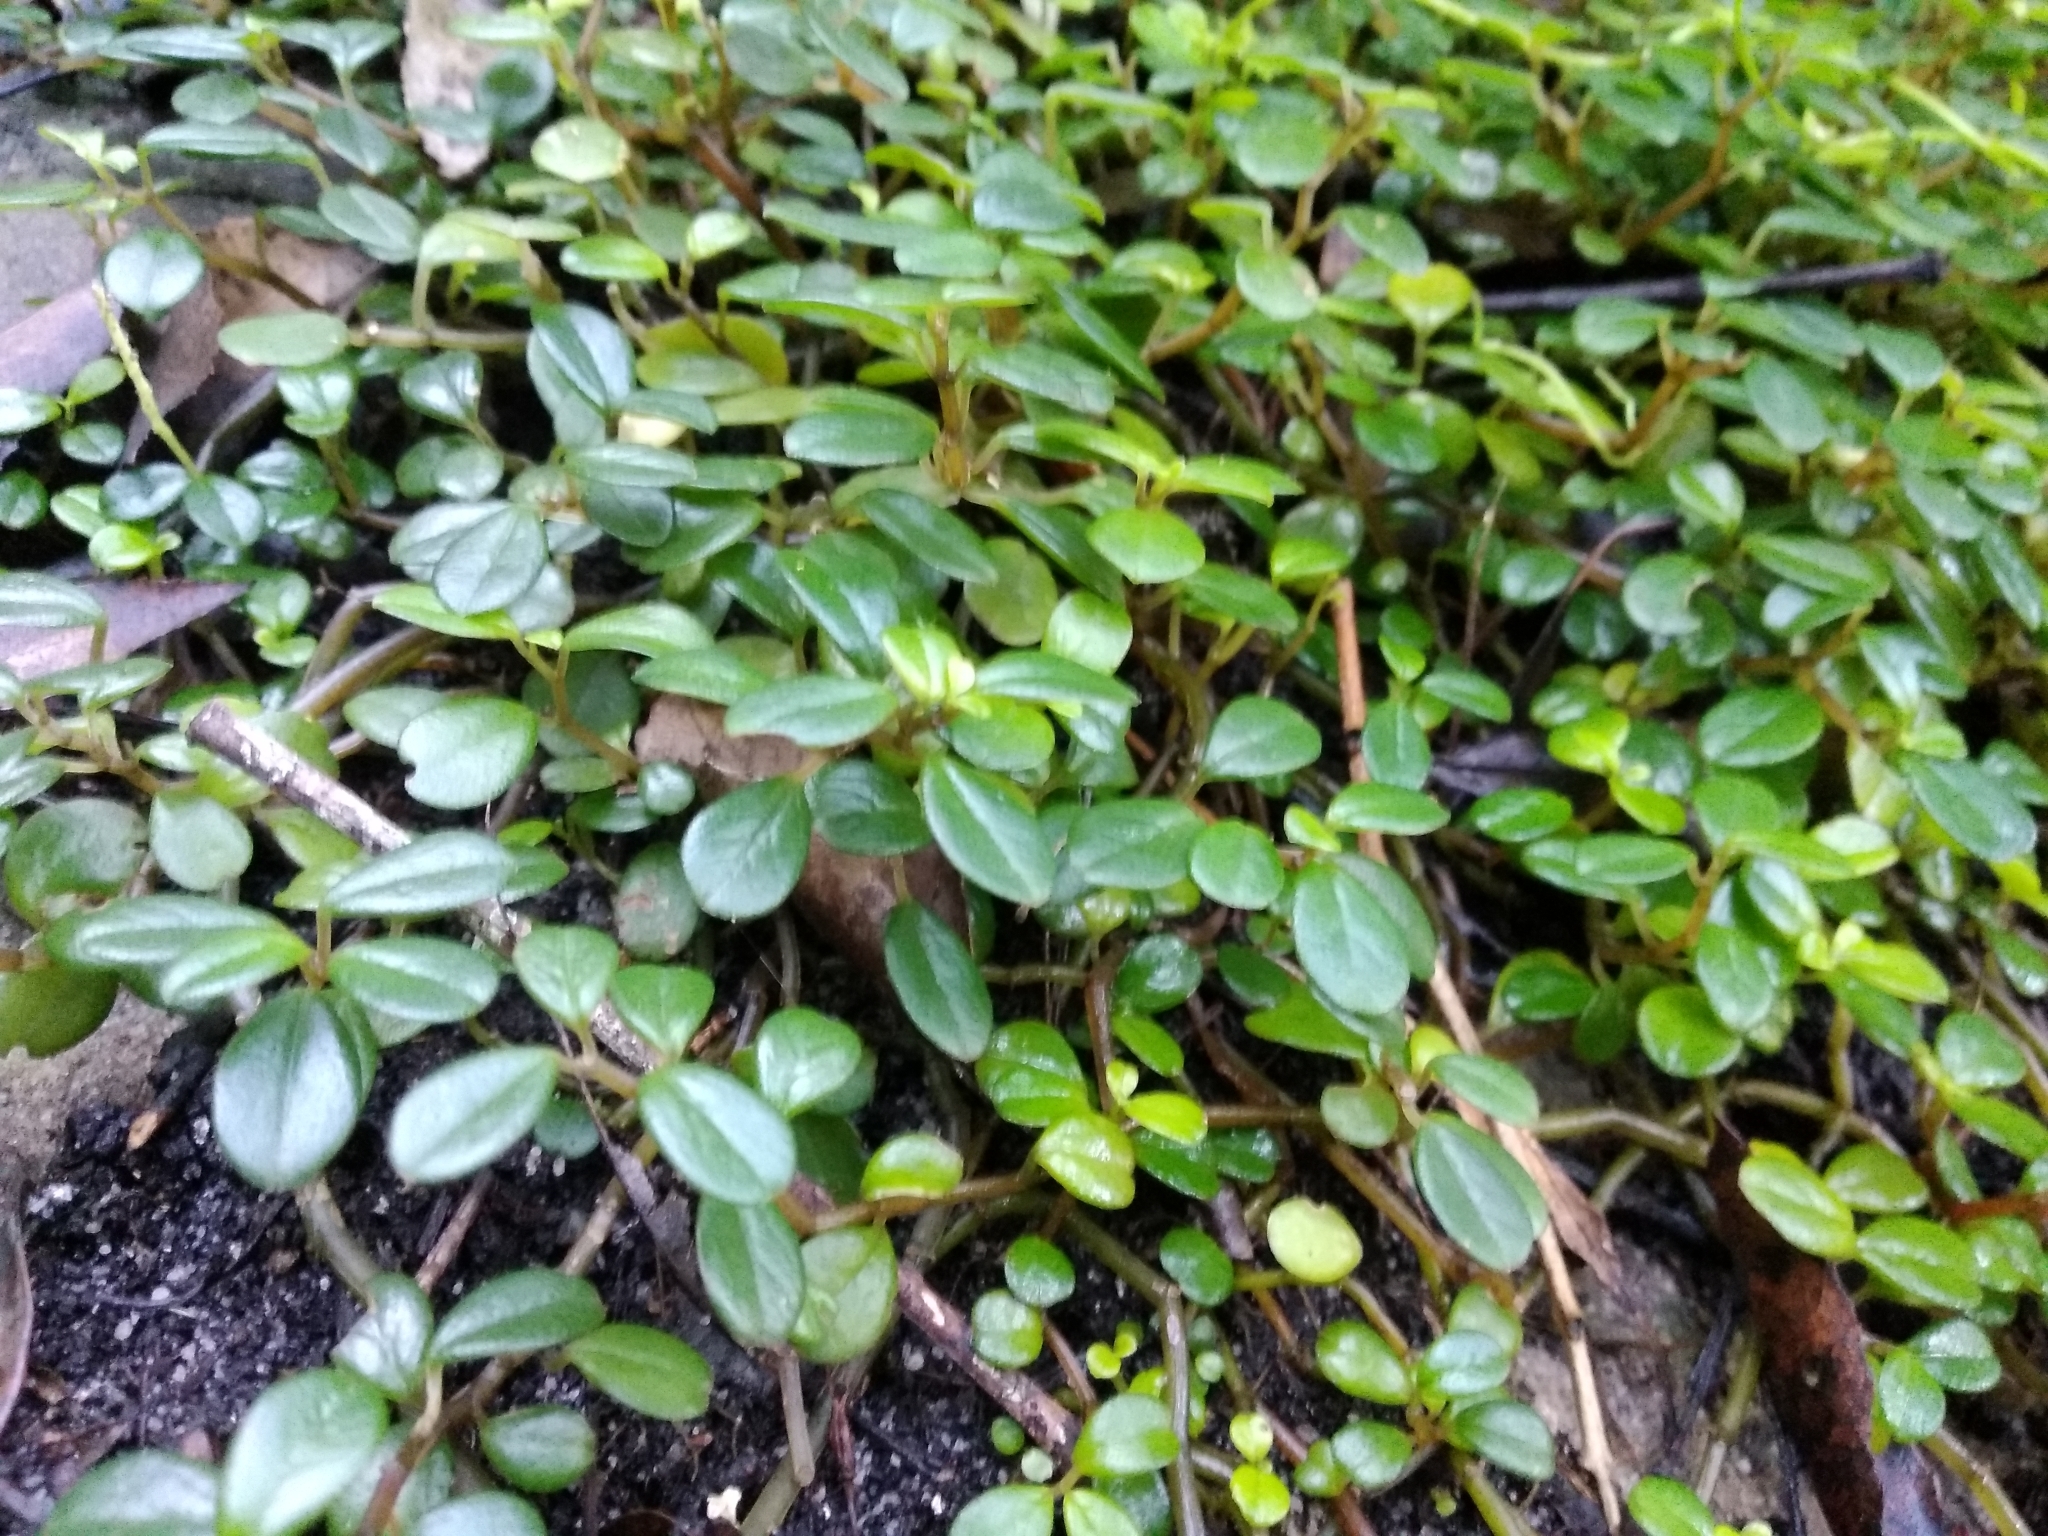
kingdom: Plantae
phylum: Tracheophyta
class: Magnoliopsida
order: Piperales
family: Piperaceae
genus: Peperomia
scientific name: Peperomia retusa
